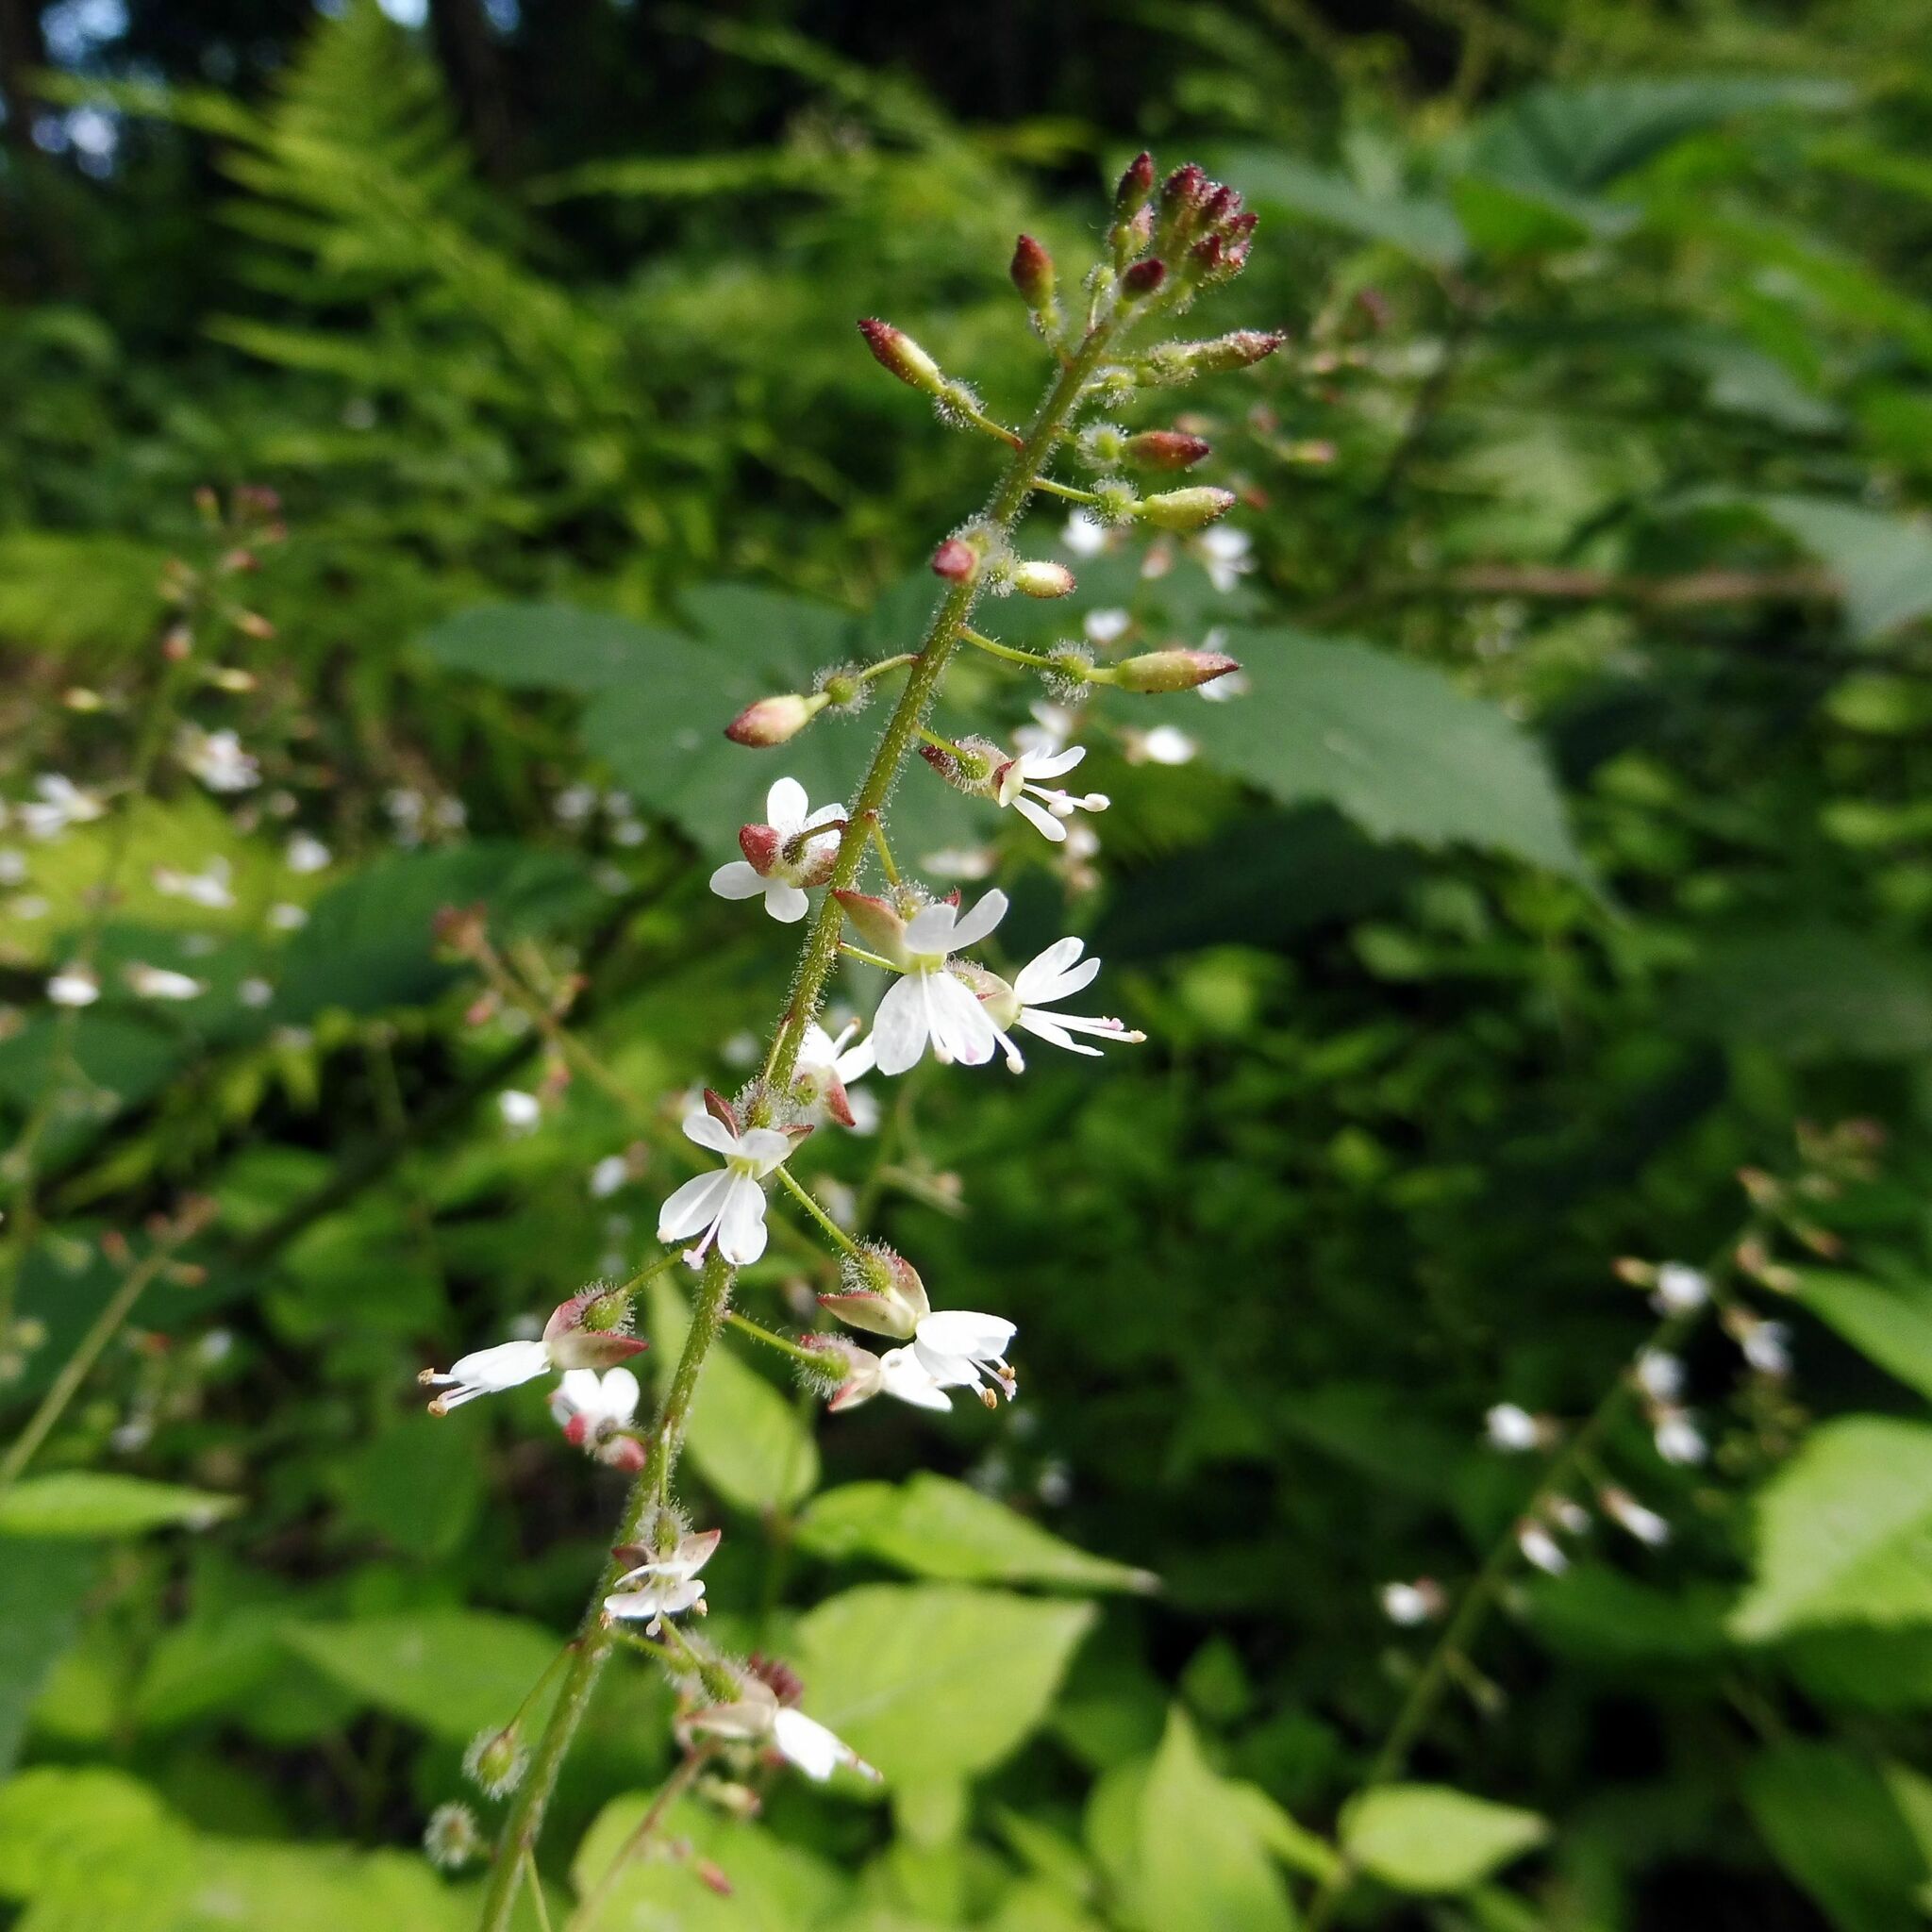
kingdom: Plantae
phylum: Tracheophyta
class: Magnoliopsida
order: Myrtales
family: Onagraceae
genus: Circaea
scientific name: Circaea lutetiana
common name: Enchanter's-nightshade
